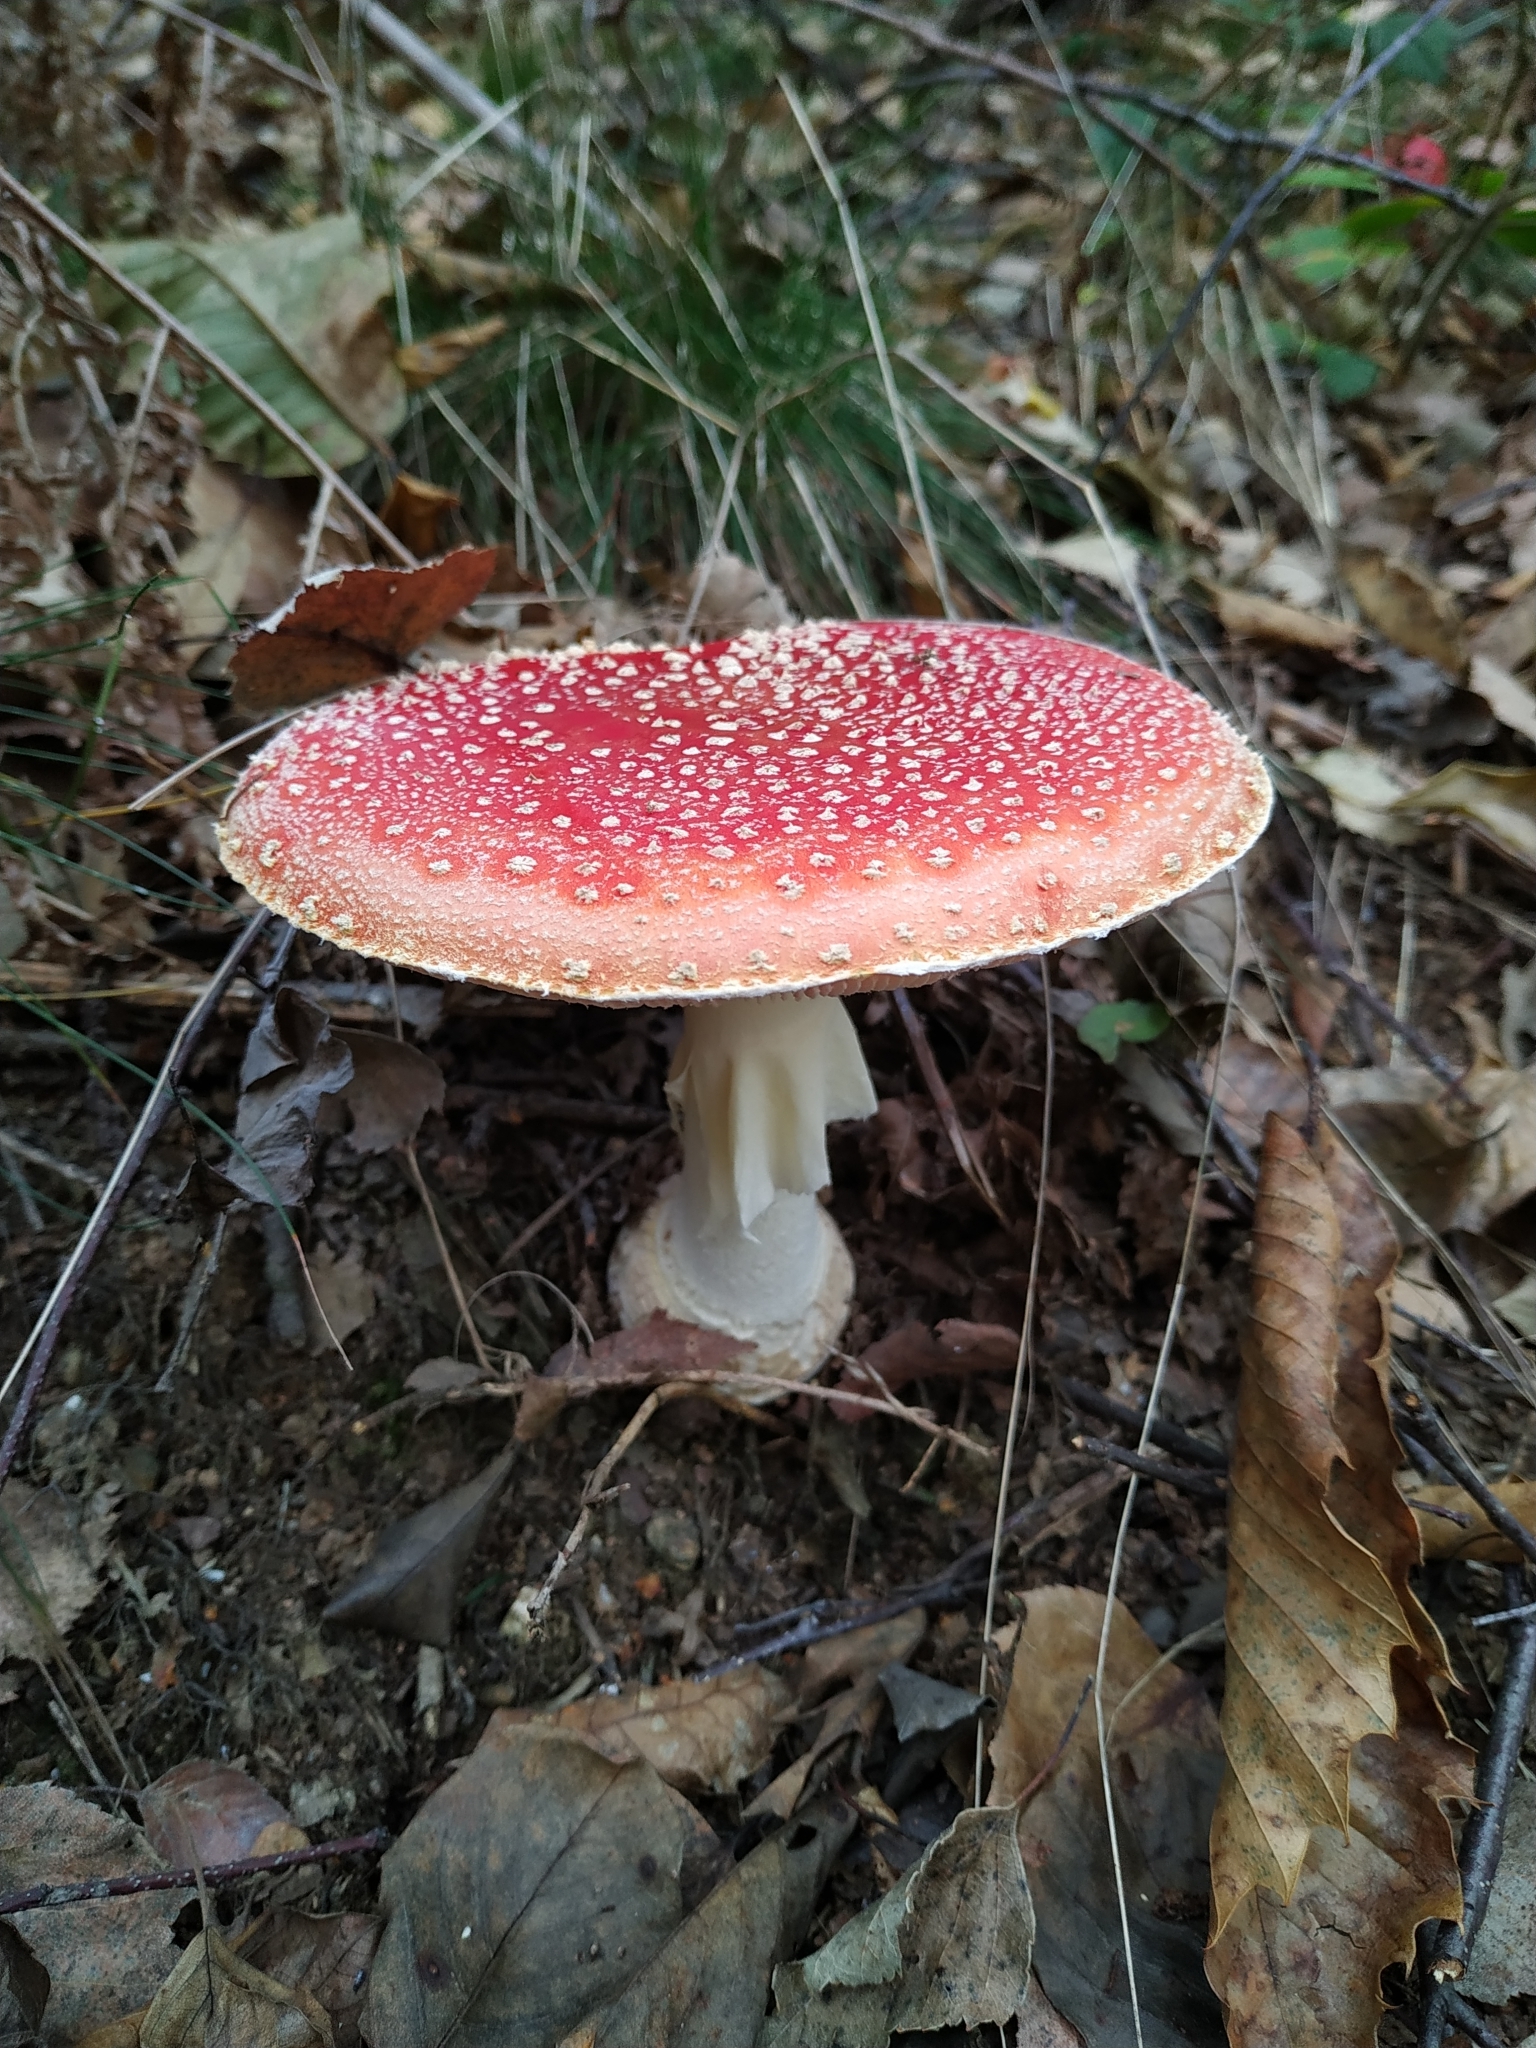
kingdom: Fungi
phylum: Basidiomycota
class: Agaricomycetes
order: Agaricales
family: Amanitaceae
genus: Amanita
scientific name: Amanita muscaria
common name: Fly agaric
